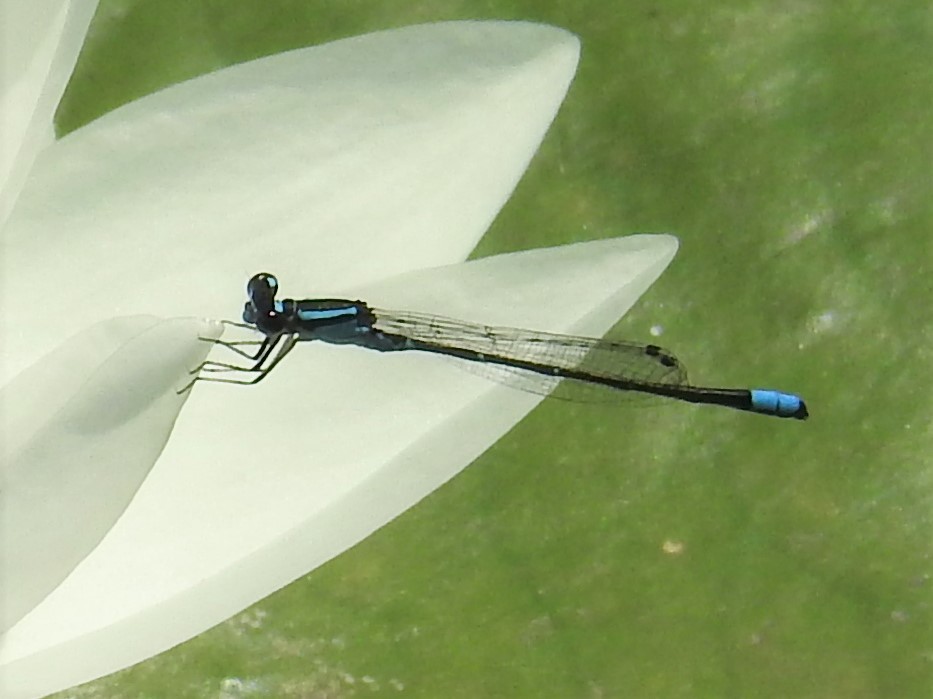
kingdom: Animalia
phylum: Arthropoda
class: Insecta
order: Odonata
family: Coenagrionidae
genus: Enallagma
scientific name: Enallagma geminatum
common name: Skimming bluet
